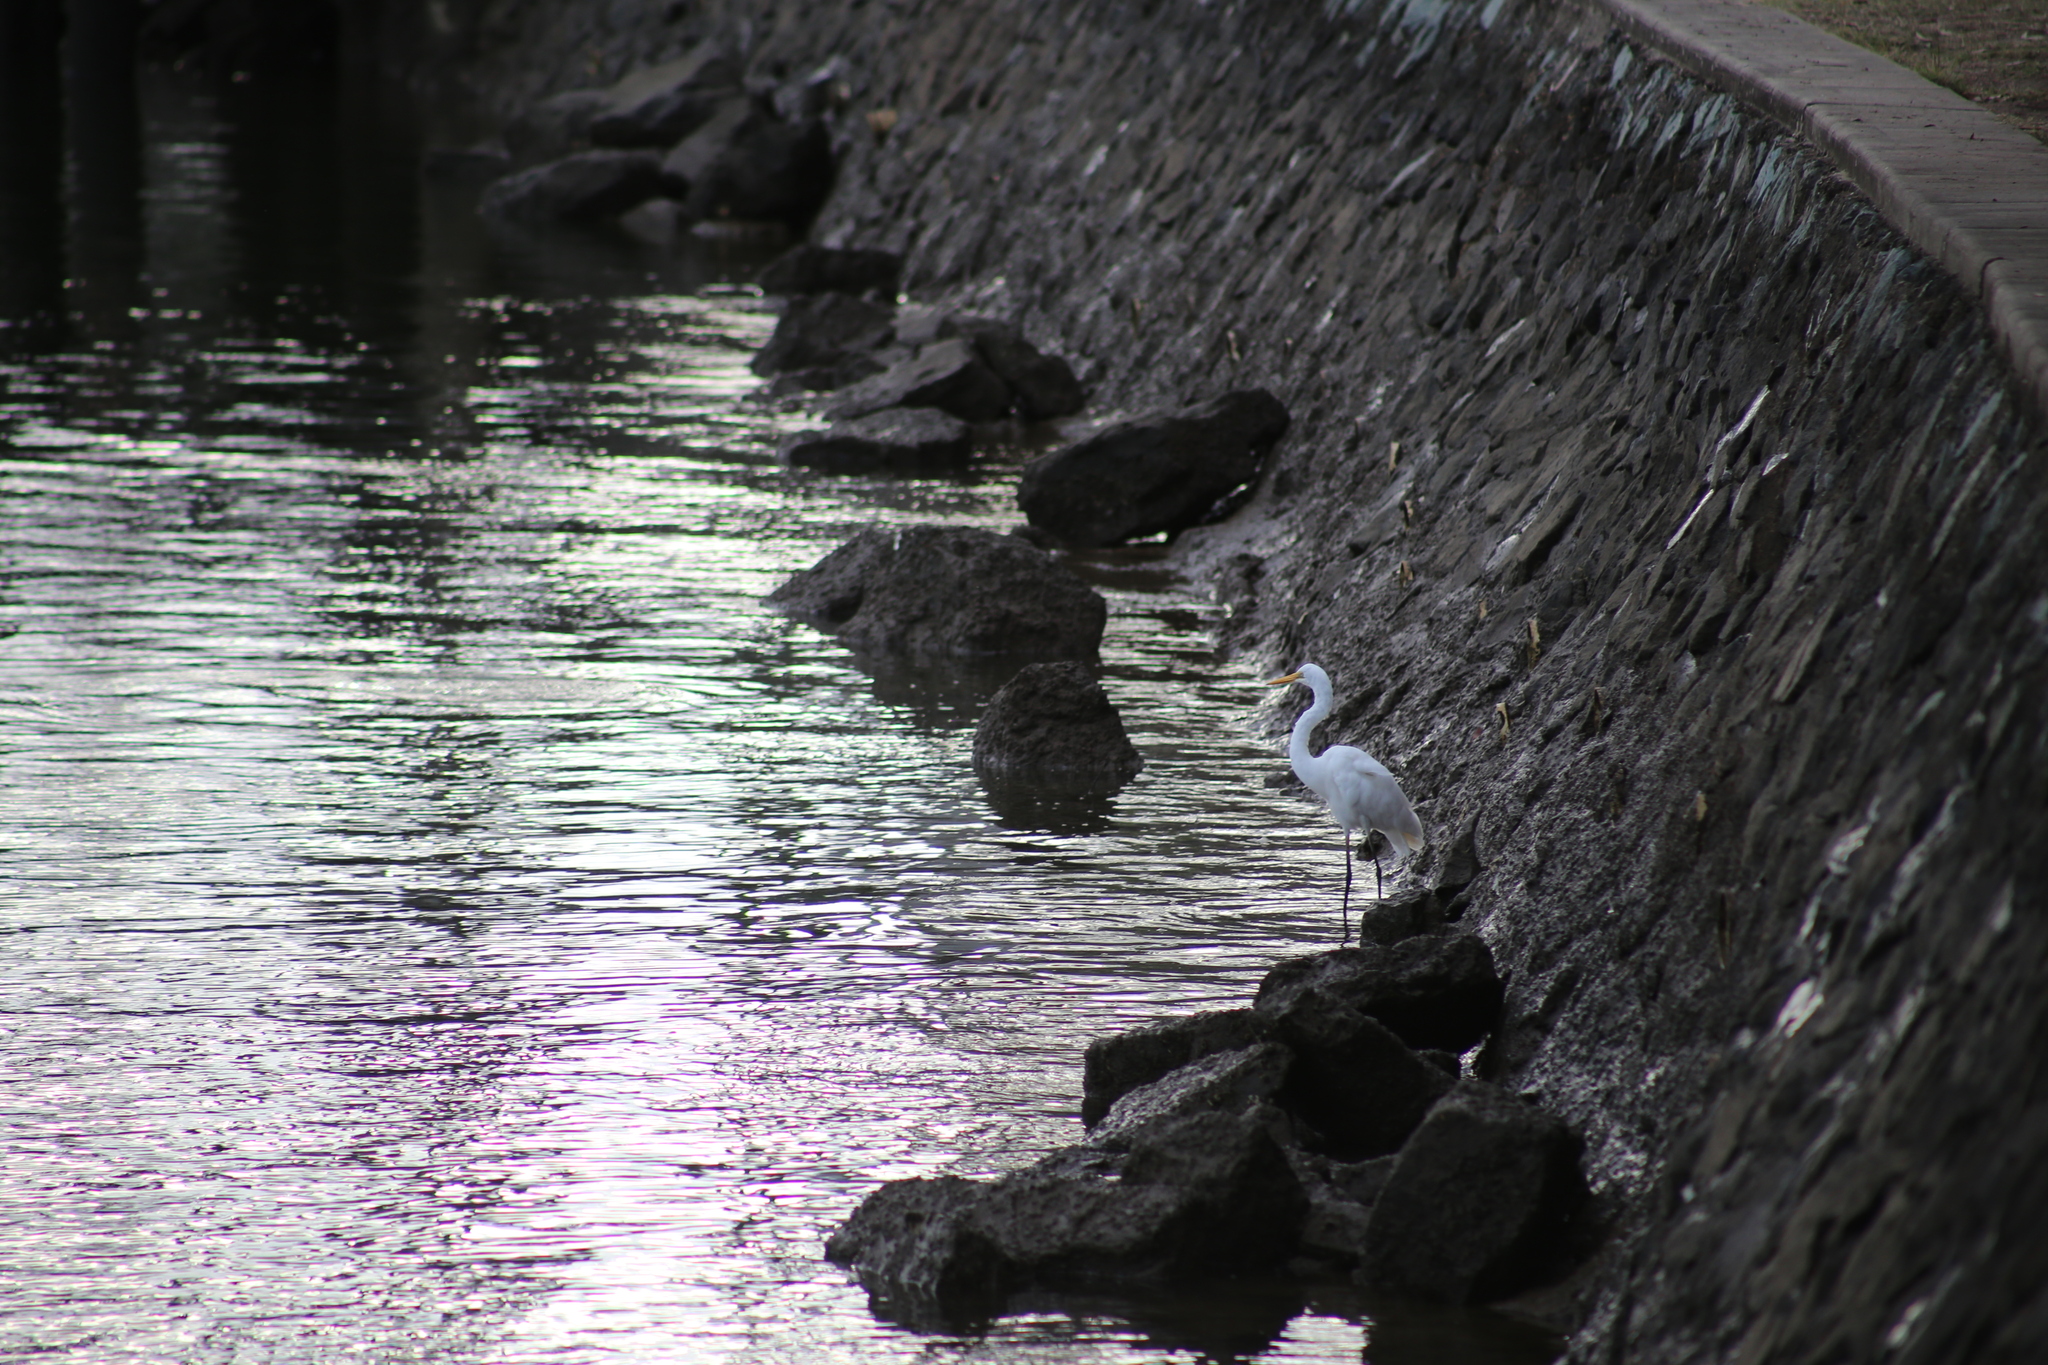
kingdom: Animalia
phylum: Chordata
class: Aves
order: Pelecaniformes
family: Ardeidae
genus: Ardea
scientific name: Ardea alba
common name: Great egret
